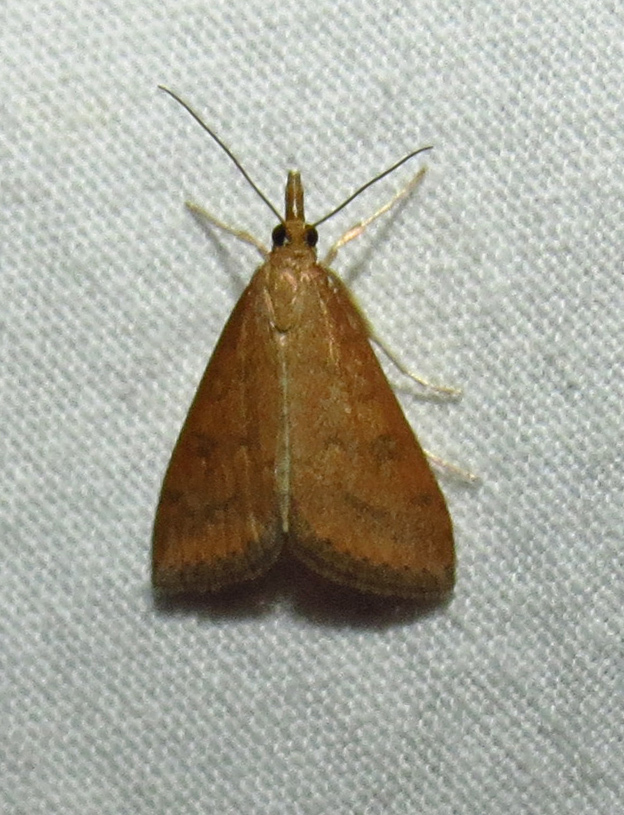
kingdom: Animalia
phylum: Arthropoda
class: Insecta
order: Lepidoptera
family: Crambidae
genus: Udea
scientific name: Udea rubigalis
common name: Celery leaftier moth
